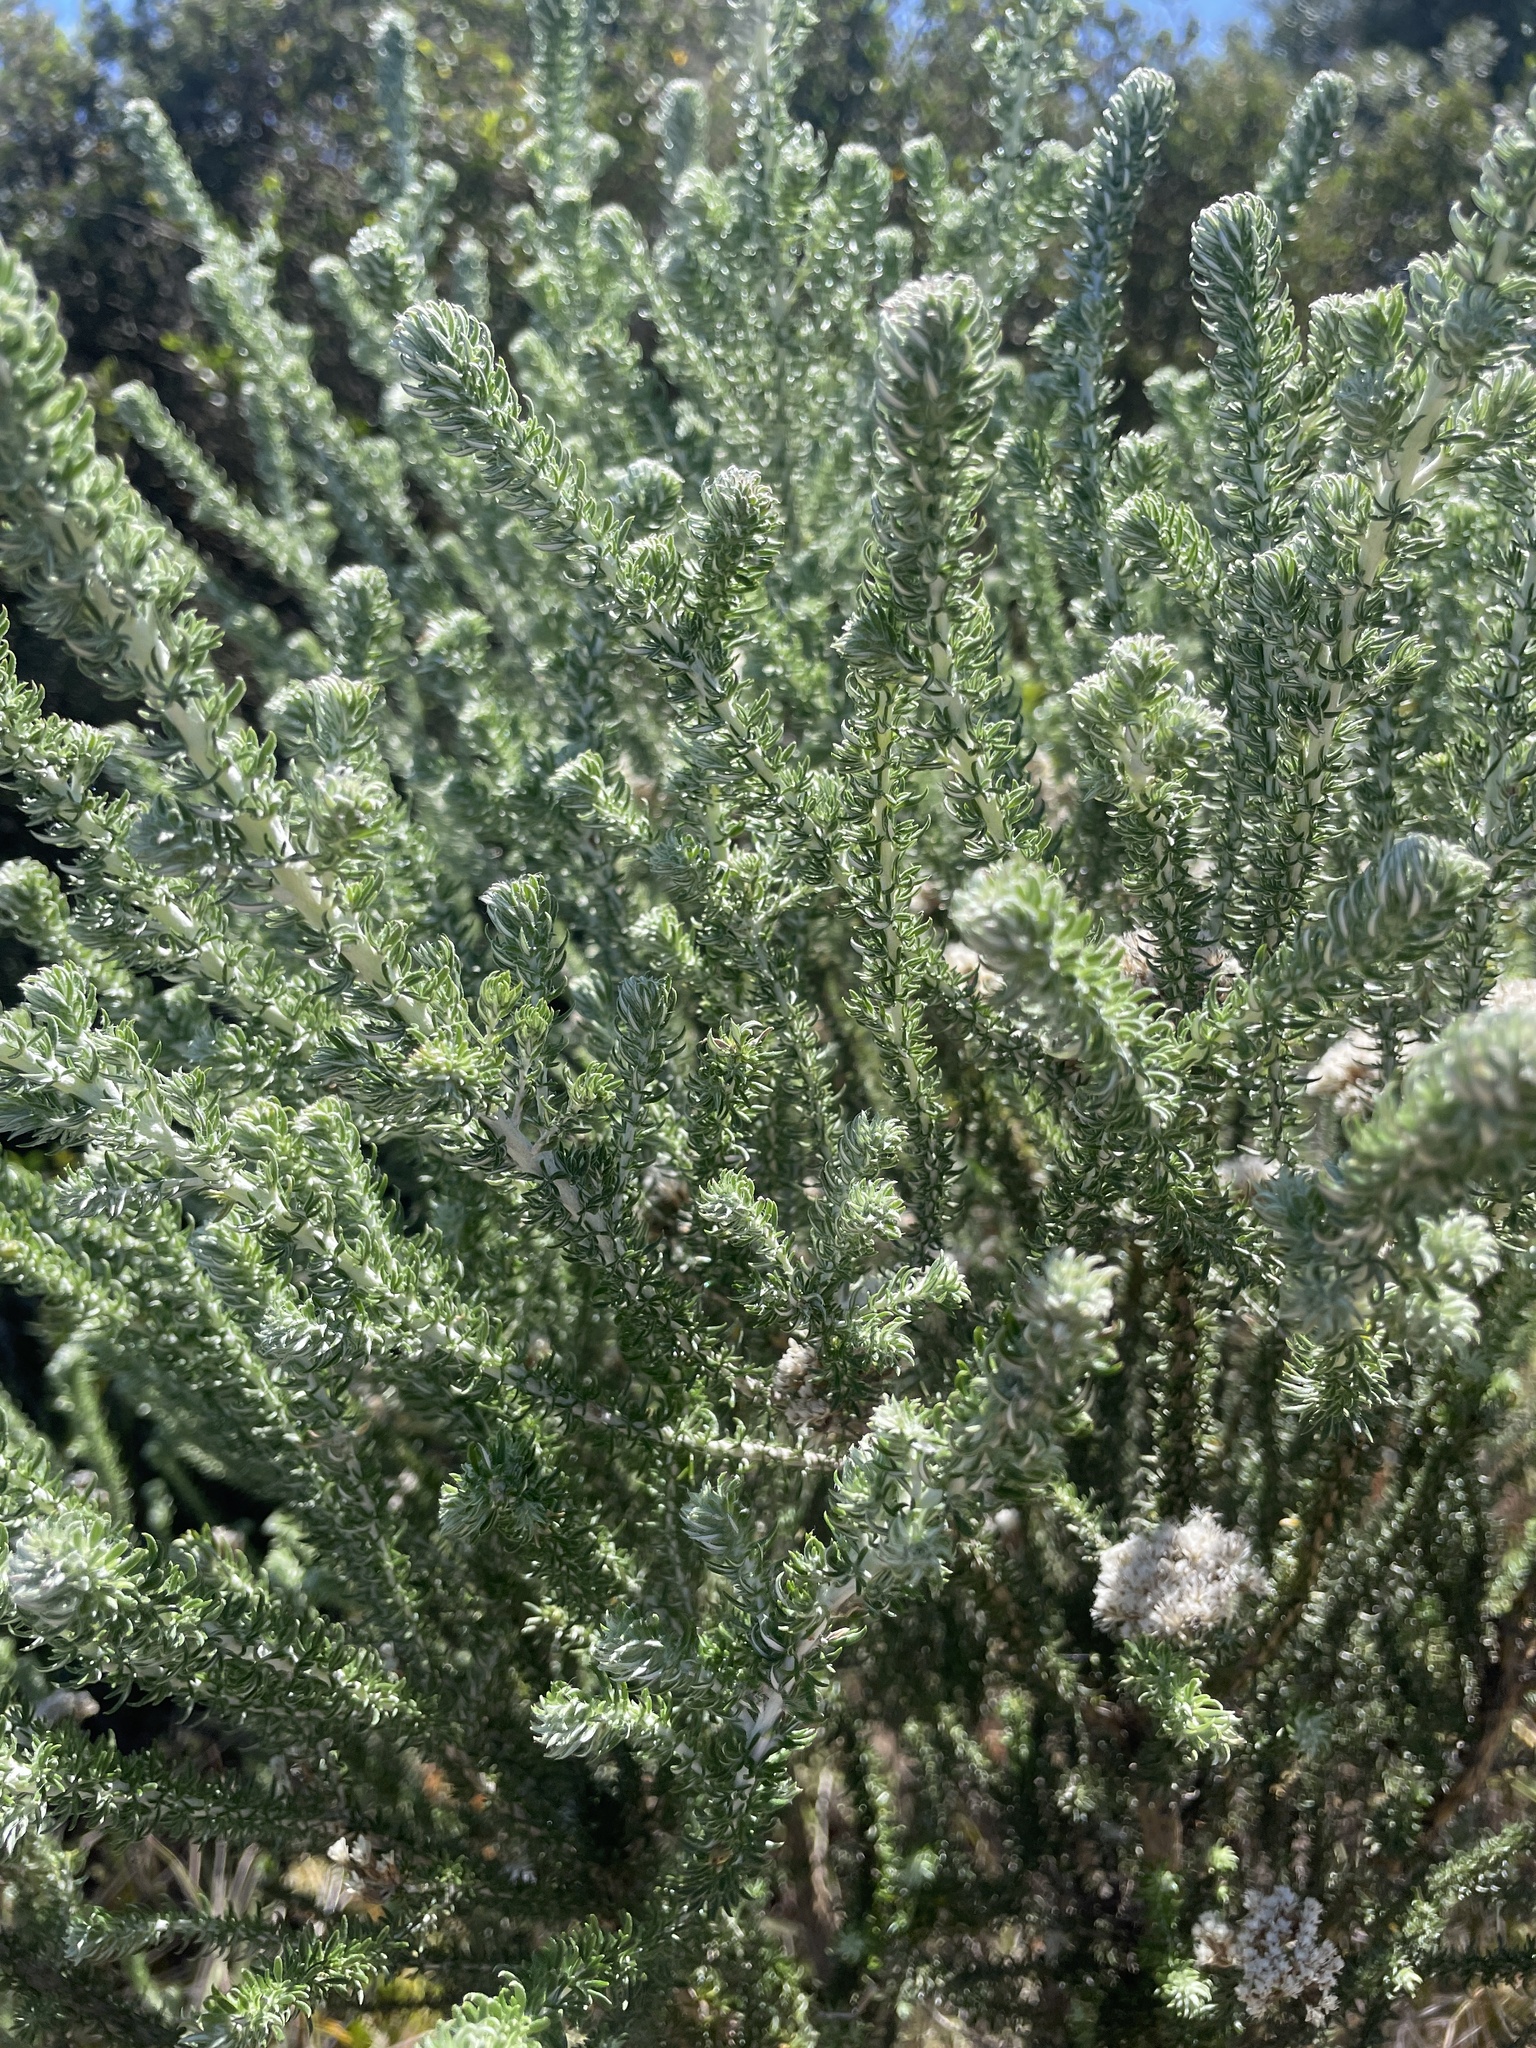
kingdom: Plantae
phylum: Tracheophyta
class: Magnoliopsida
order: Asterales
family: Asteraceae
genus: Metalasia
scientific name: Metalasia muricata
